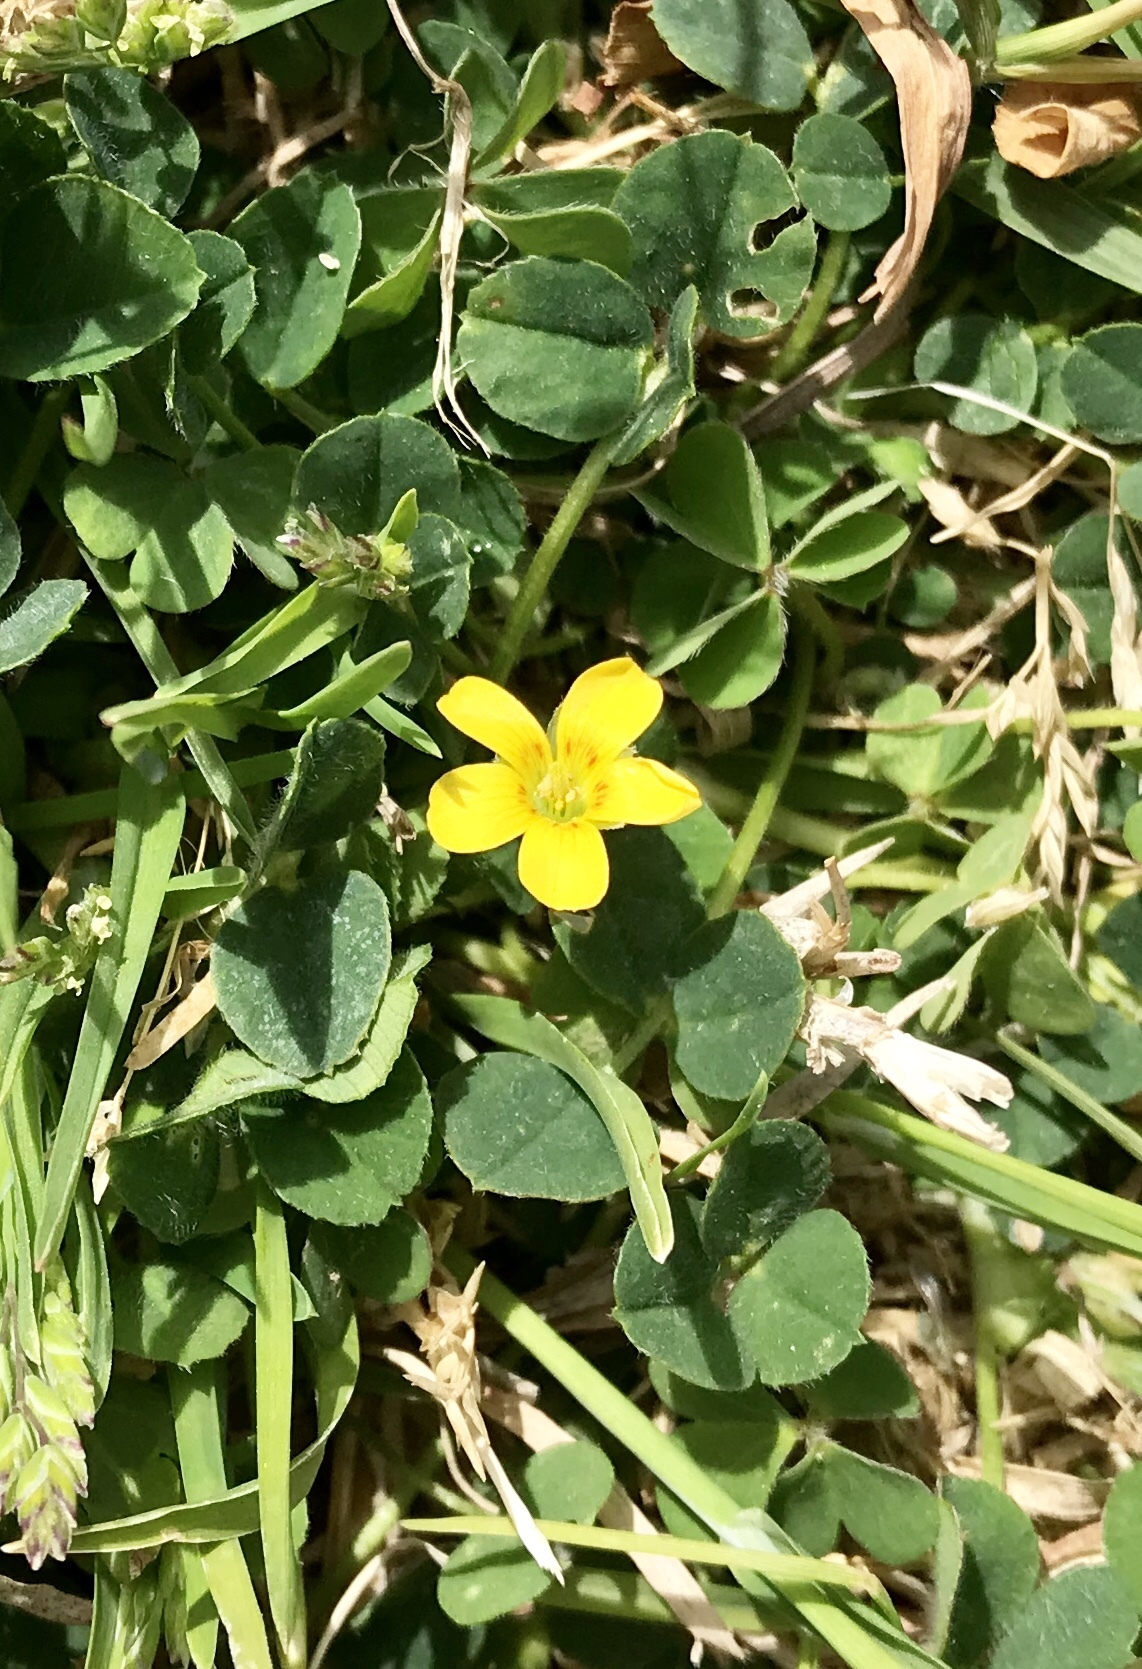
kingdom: Plantae
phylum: Tracheophyta
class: Magnoliopsida
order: Oxalidales
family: Oxalidaceae
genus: Oxalis
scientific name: Oxalis corniculata
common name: Procumbent yellow-sorrel
